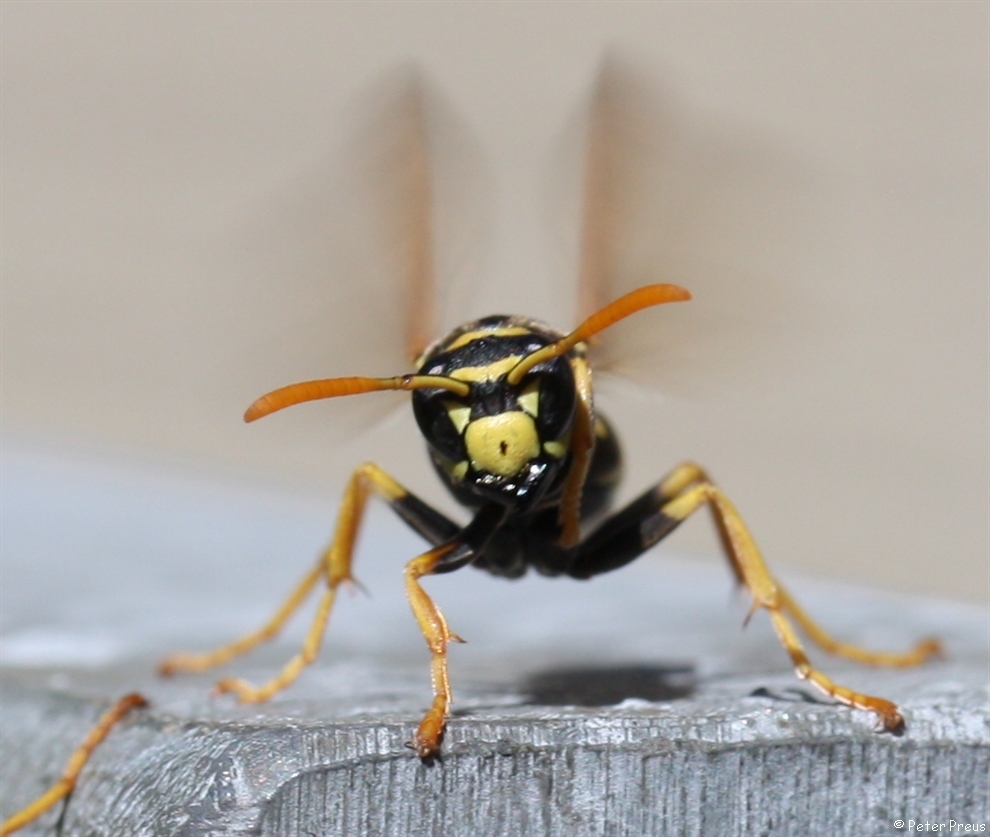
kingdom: Animalia
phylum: Arthropoda
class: Insecta
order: Hymenoptera
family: Eumenidae
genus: Polistes
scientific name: Polistes dominula
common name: Paper wasp
